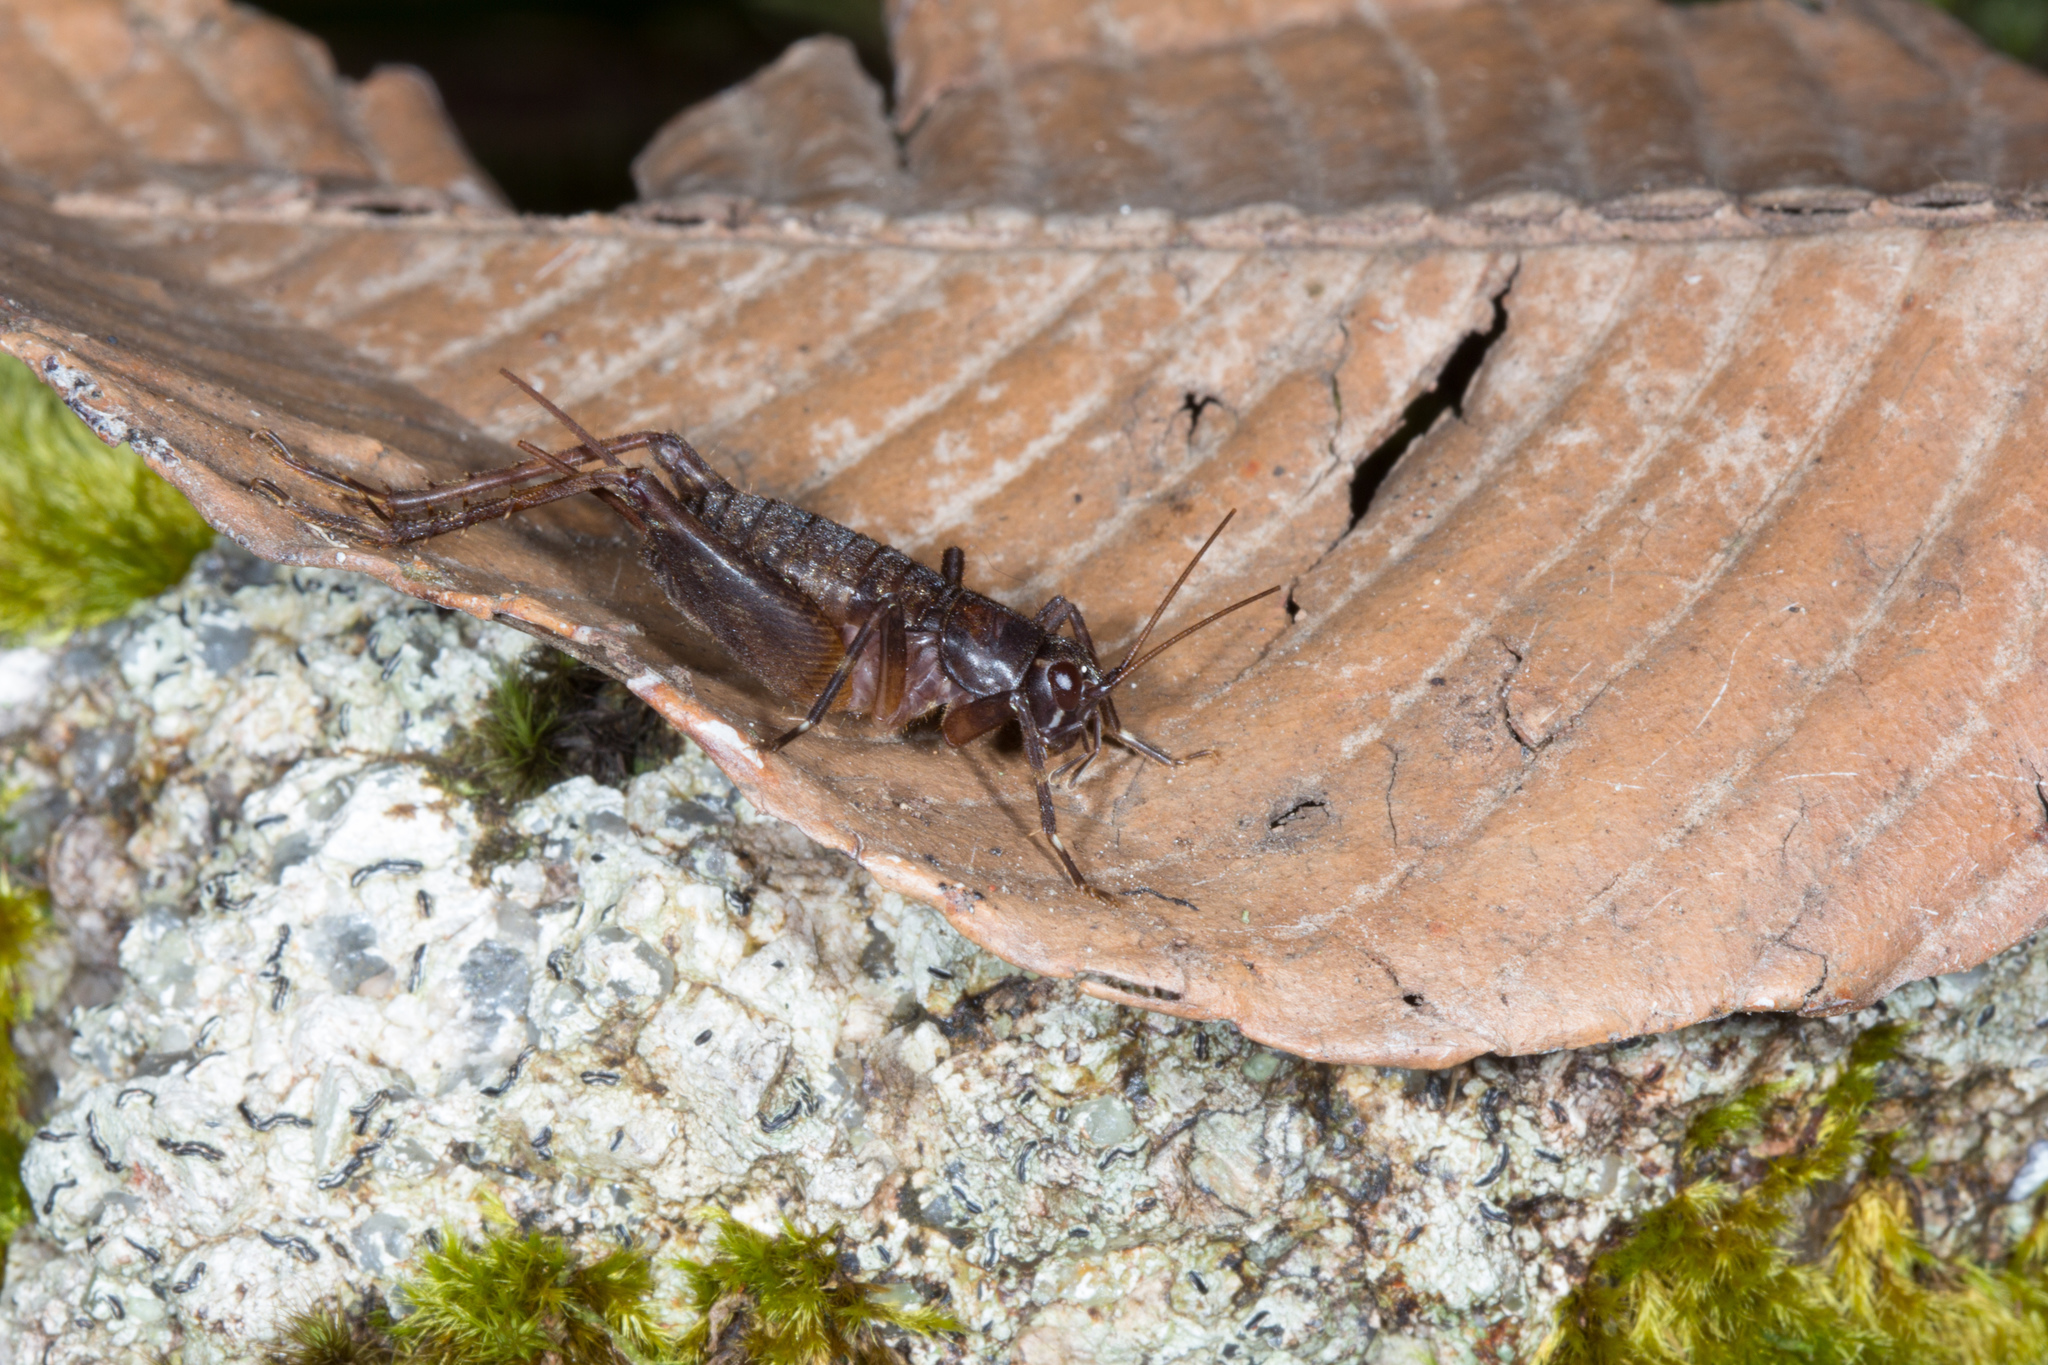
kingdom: Animalia
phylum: Arthropoda
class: Insecta
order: Orthoptera
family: Phalangopsidae
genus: Phaeogryllus
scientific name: Phaeogryllus fuscus
